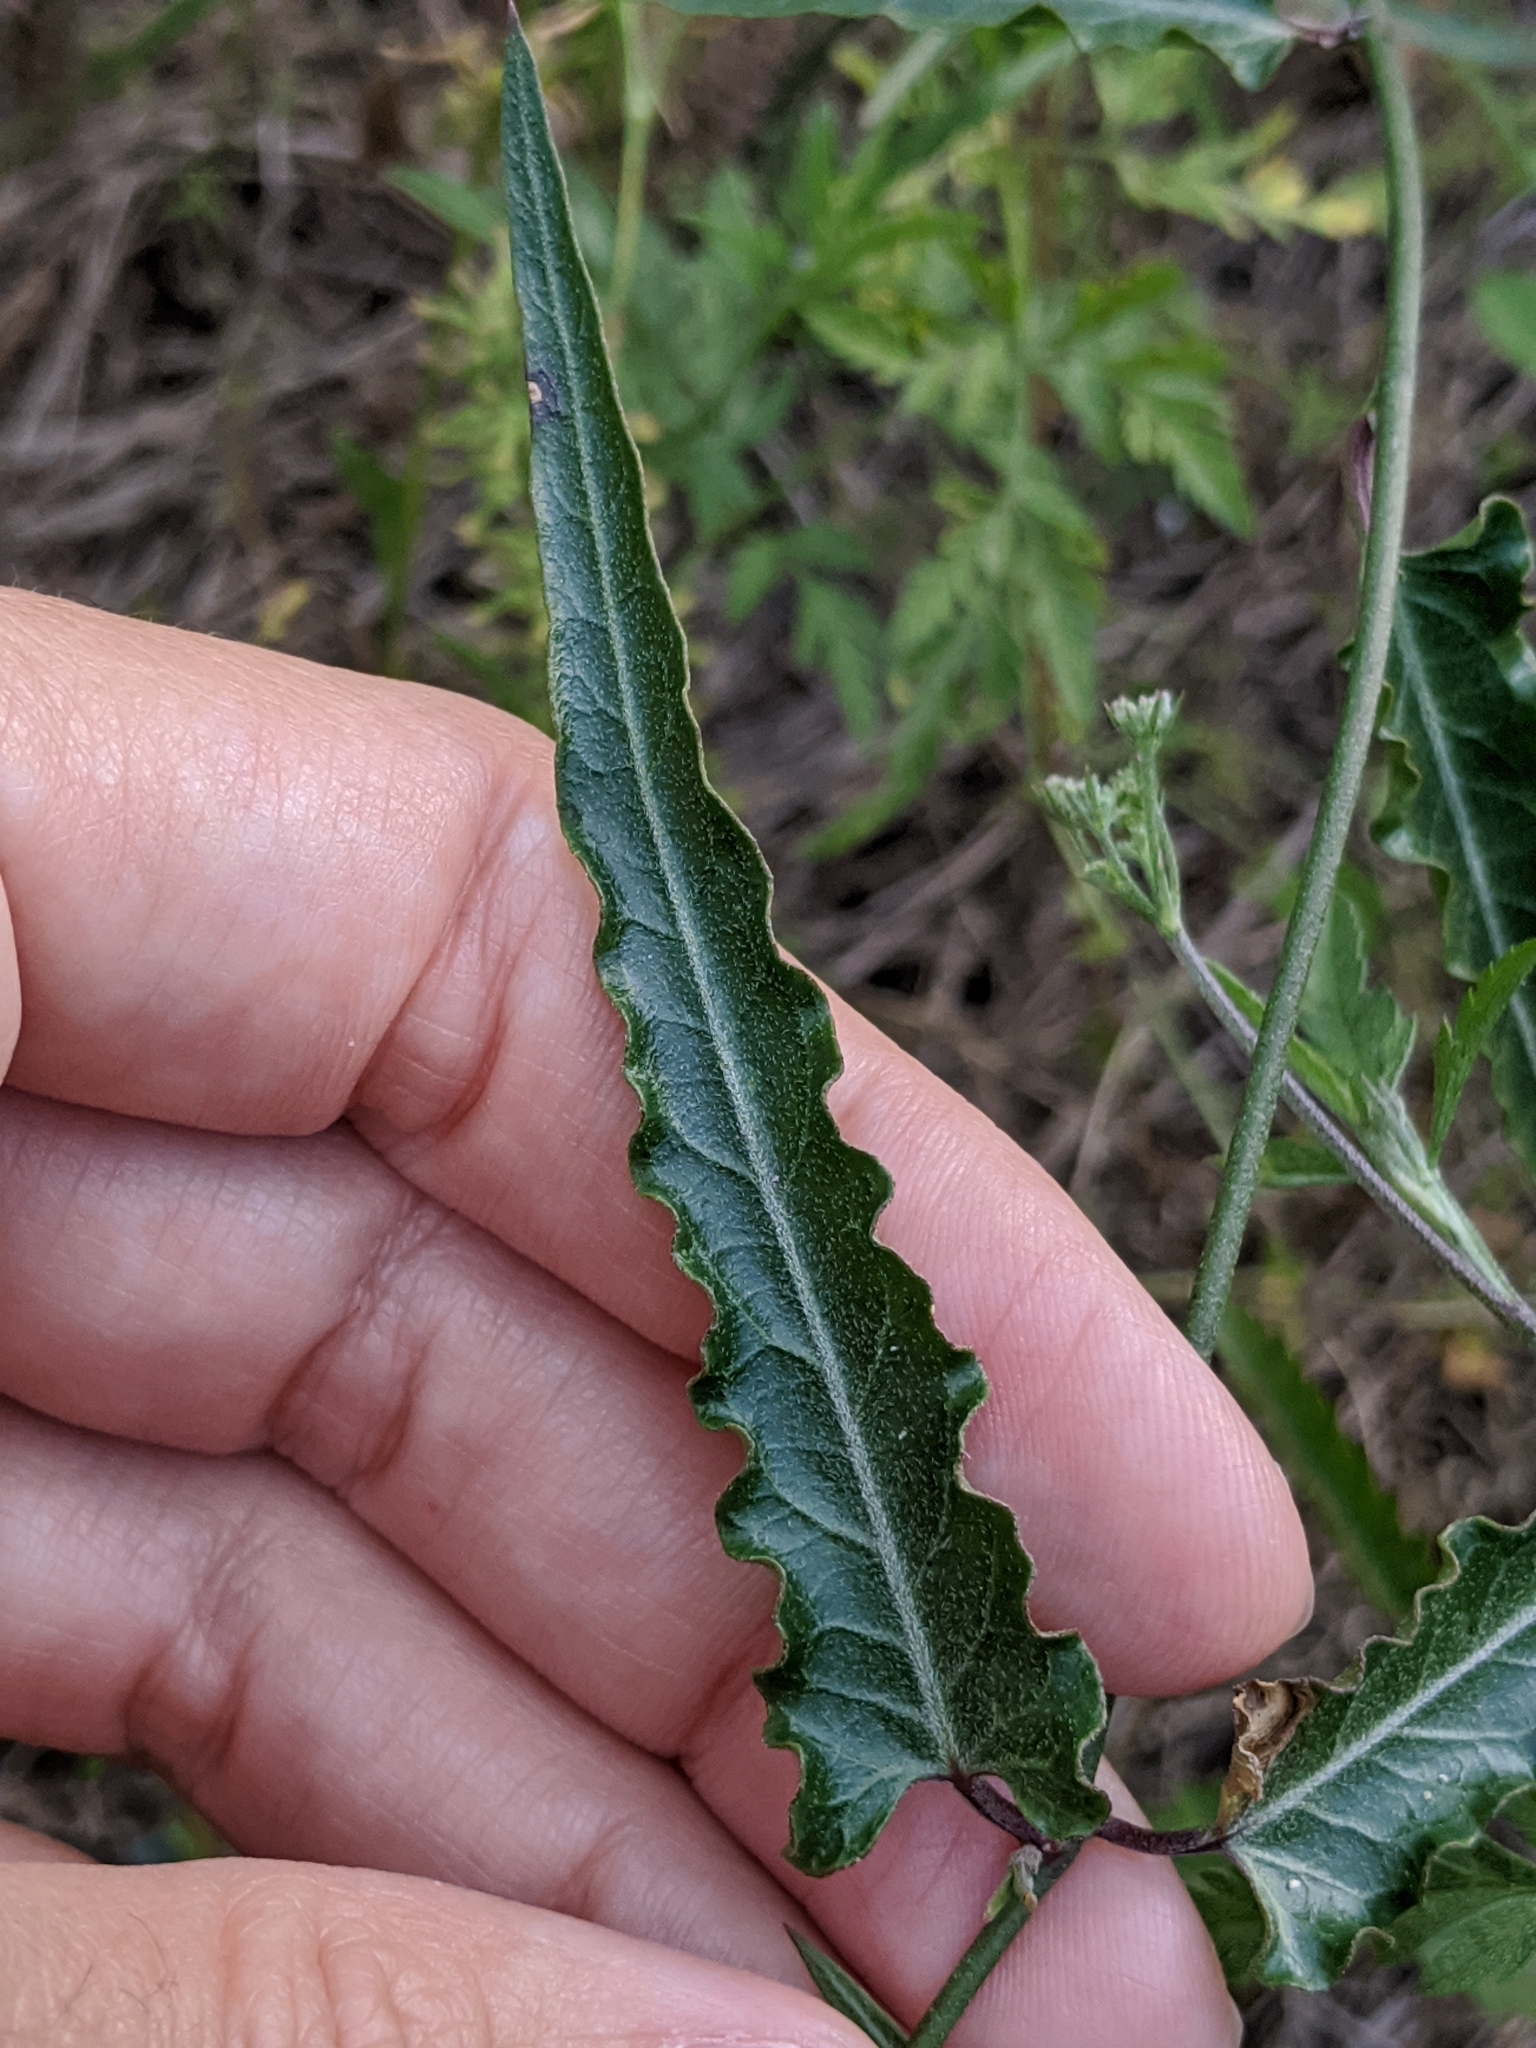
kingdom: Plantae
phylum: Tracheophyta
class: Magnoliopsida
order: Gentianales
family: Apocynaceae
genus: Funastrum
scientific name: Funastrum crispum
